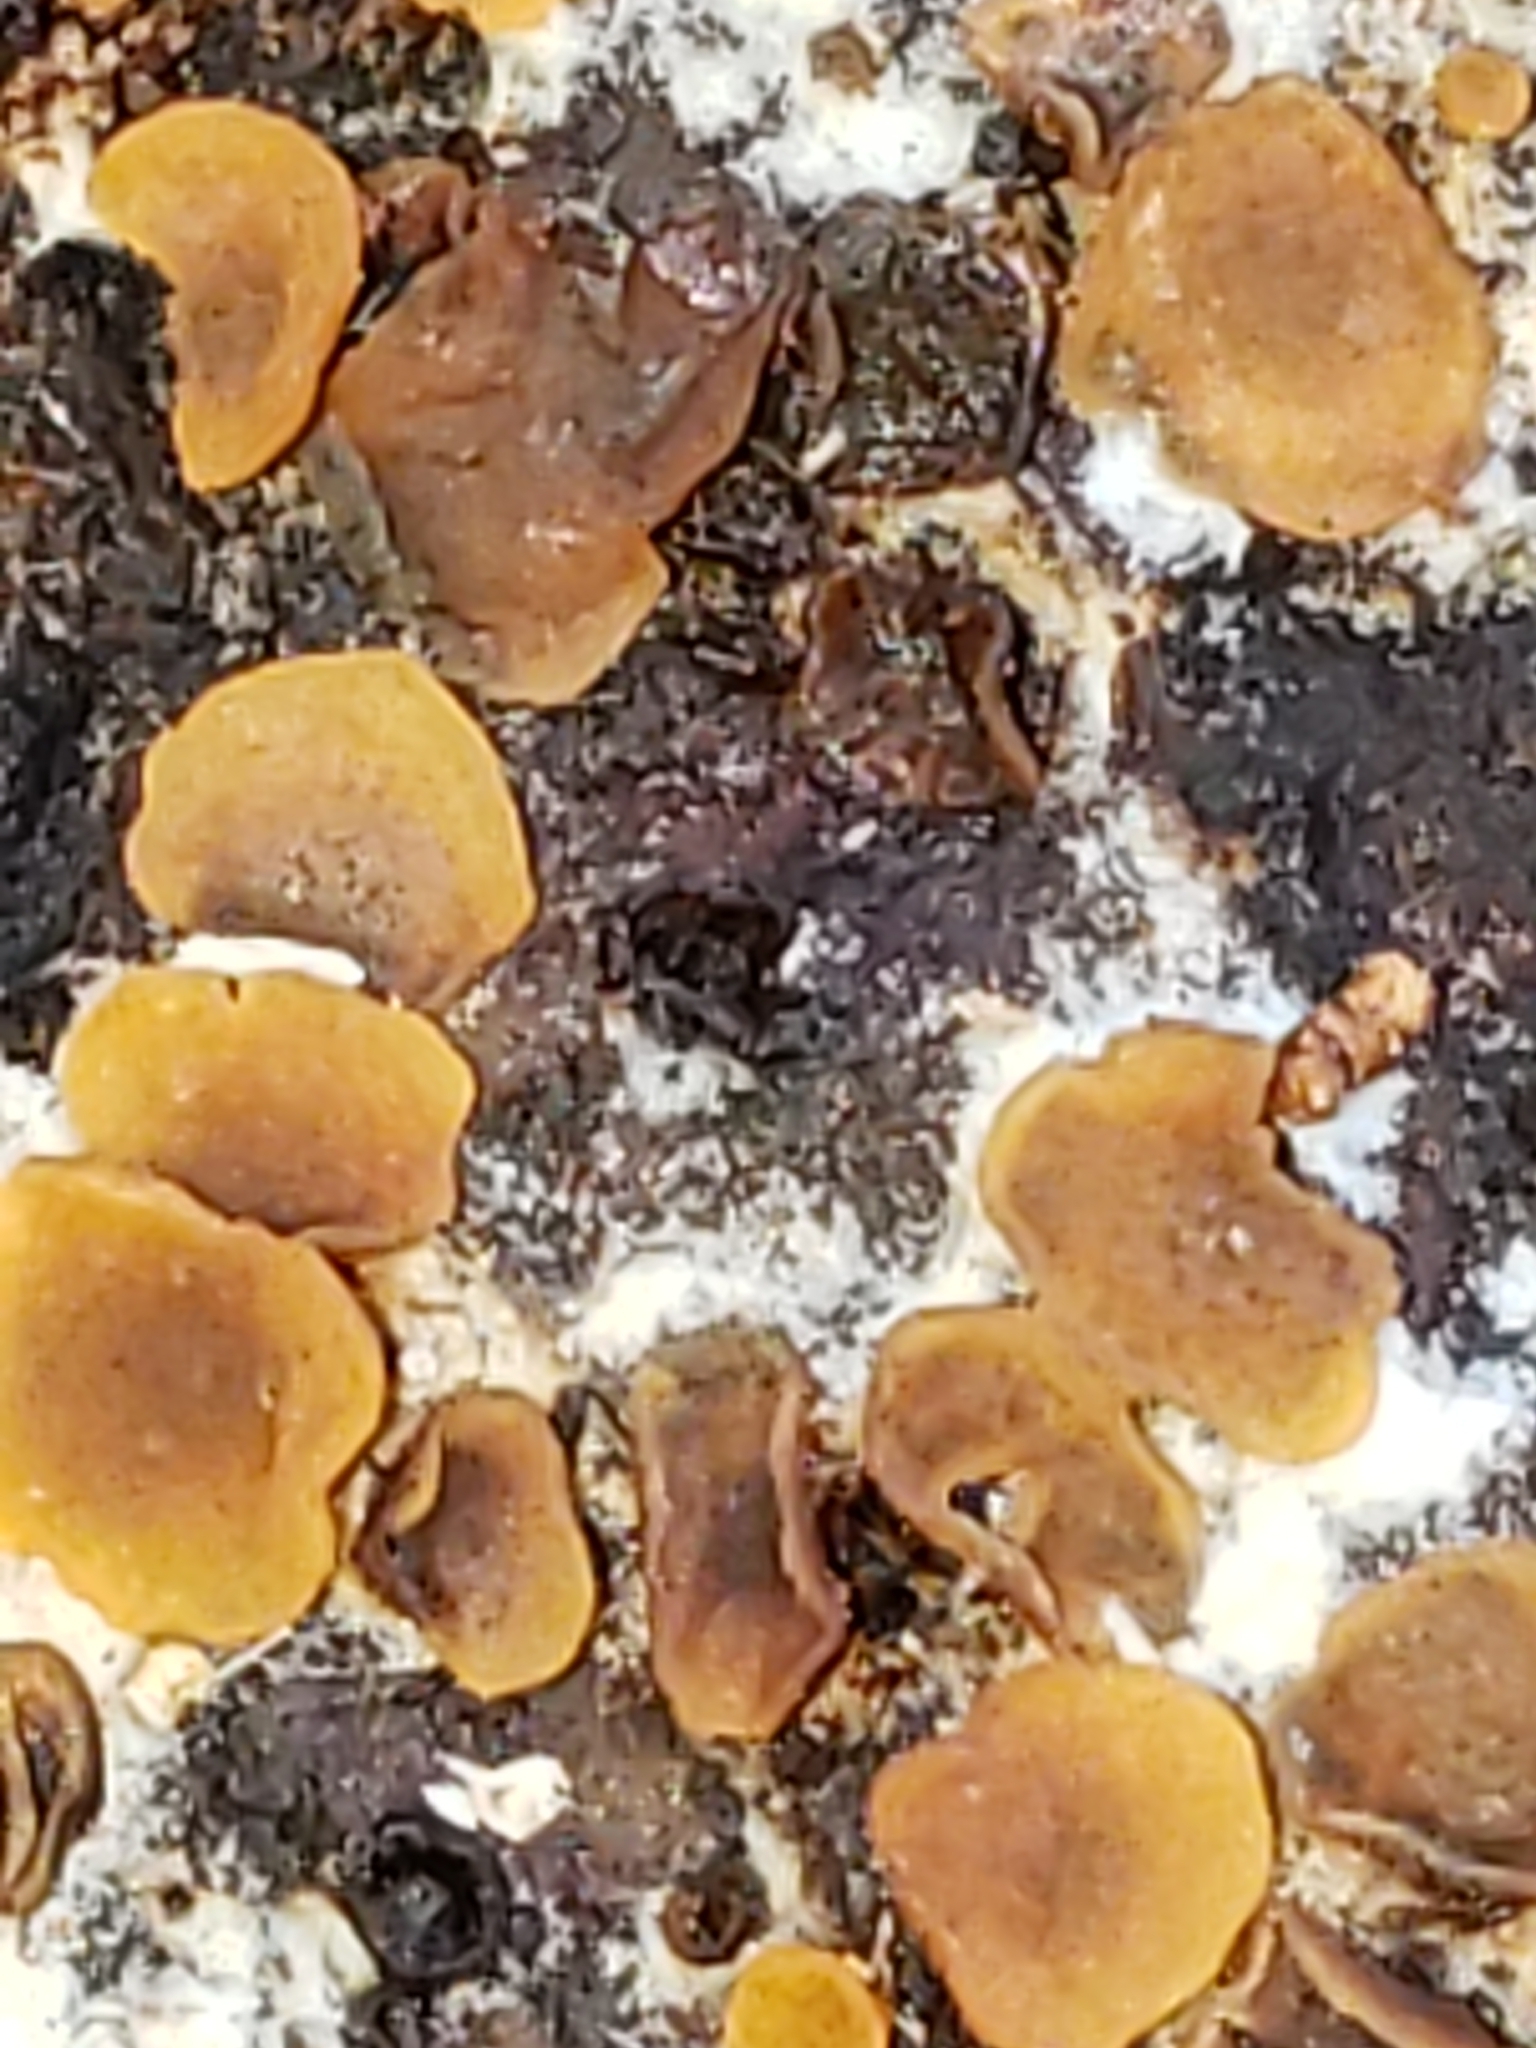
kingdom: Fungi
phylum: Ascomycota
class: Orbiliomycetes
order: Orbiliales
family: Orbiliaceae
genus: Orbilia
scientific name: Orbilia
